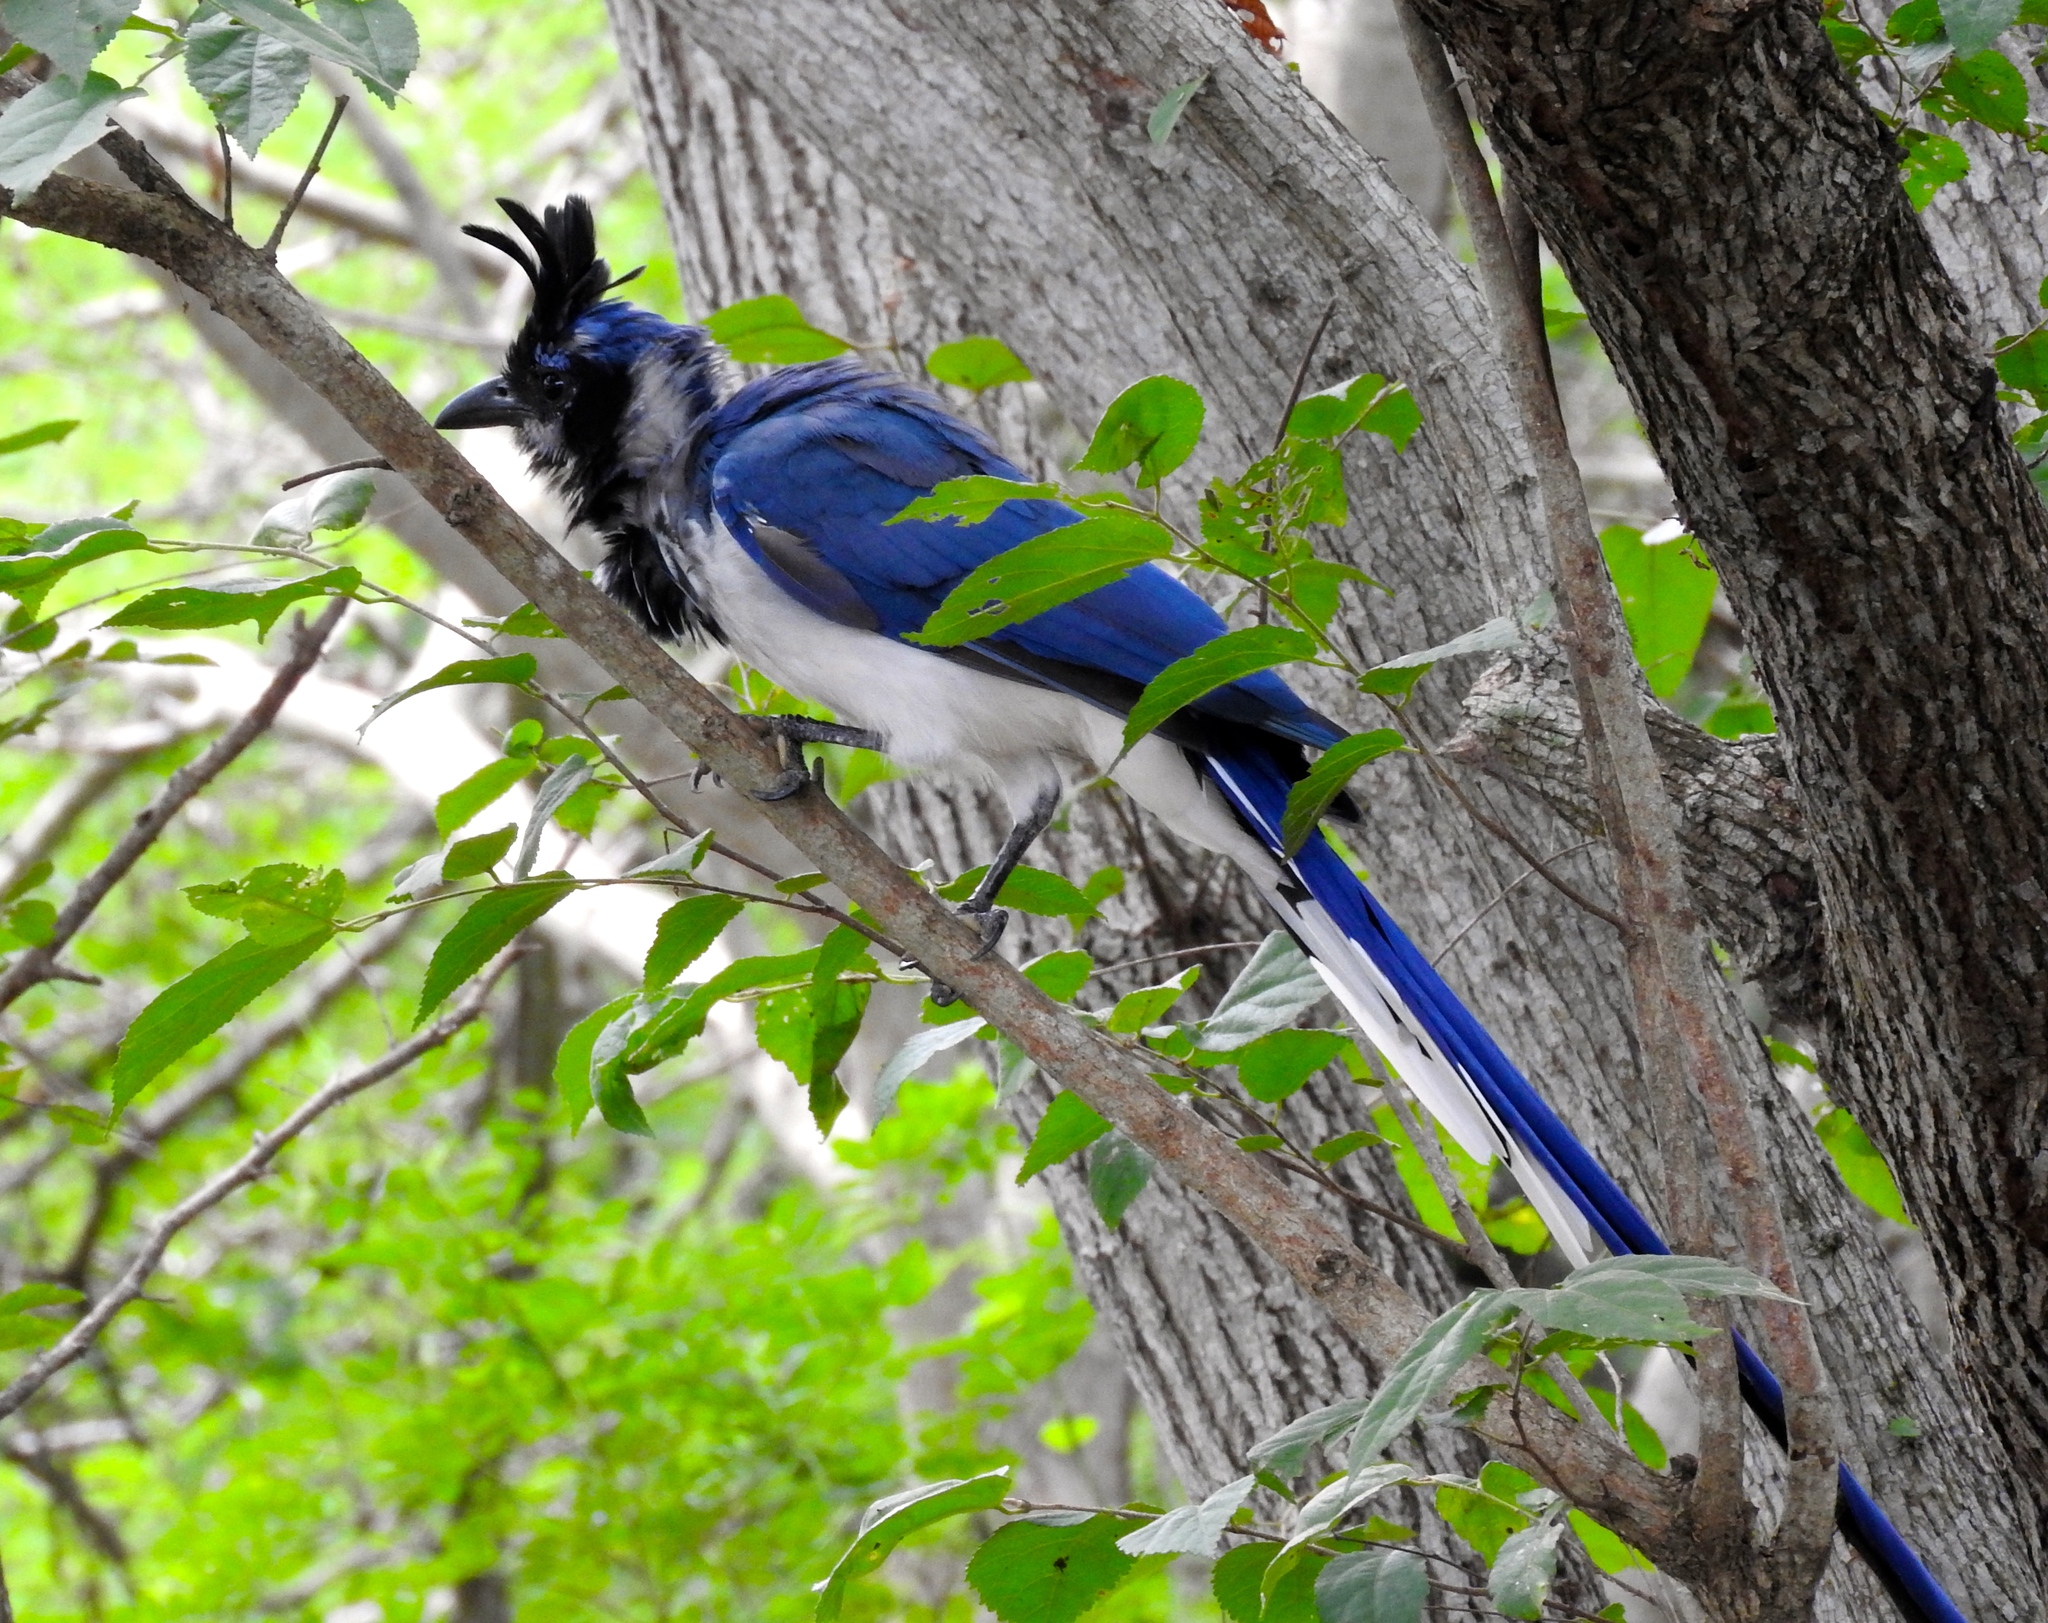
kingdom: Animalia
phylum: Chordata
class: Aves
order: Passeriformes
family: Corvidae
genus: Calocitta
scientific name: Calocitta colliei
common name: Black-throated magpie-jay
